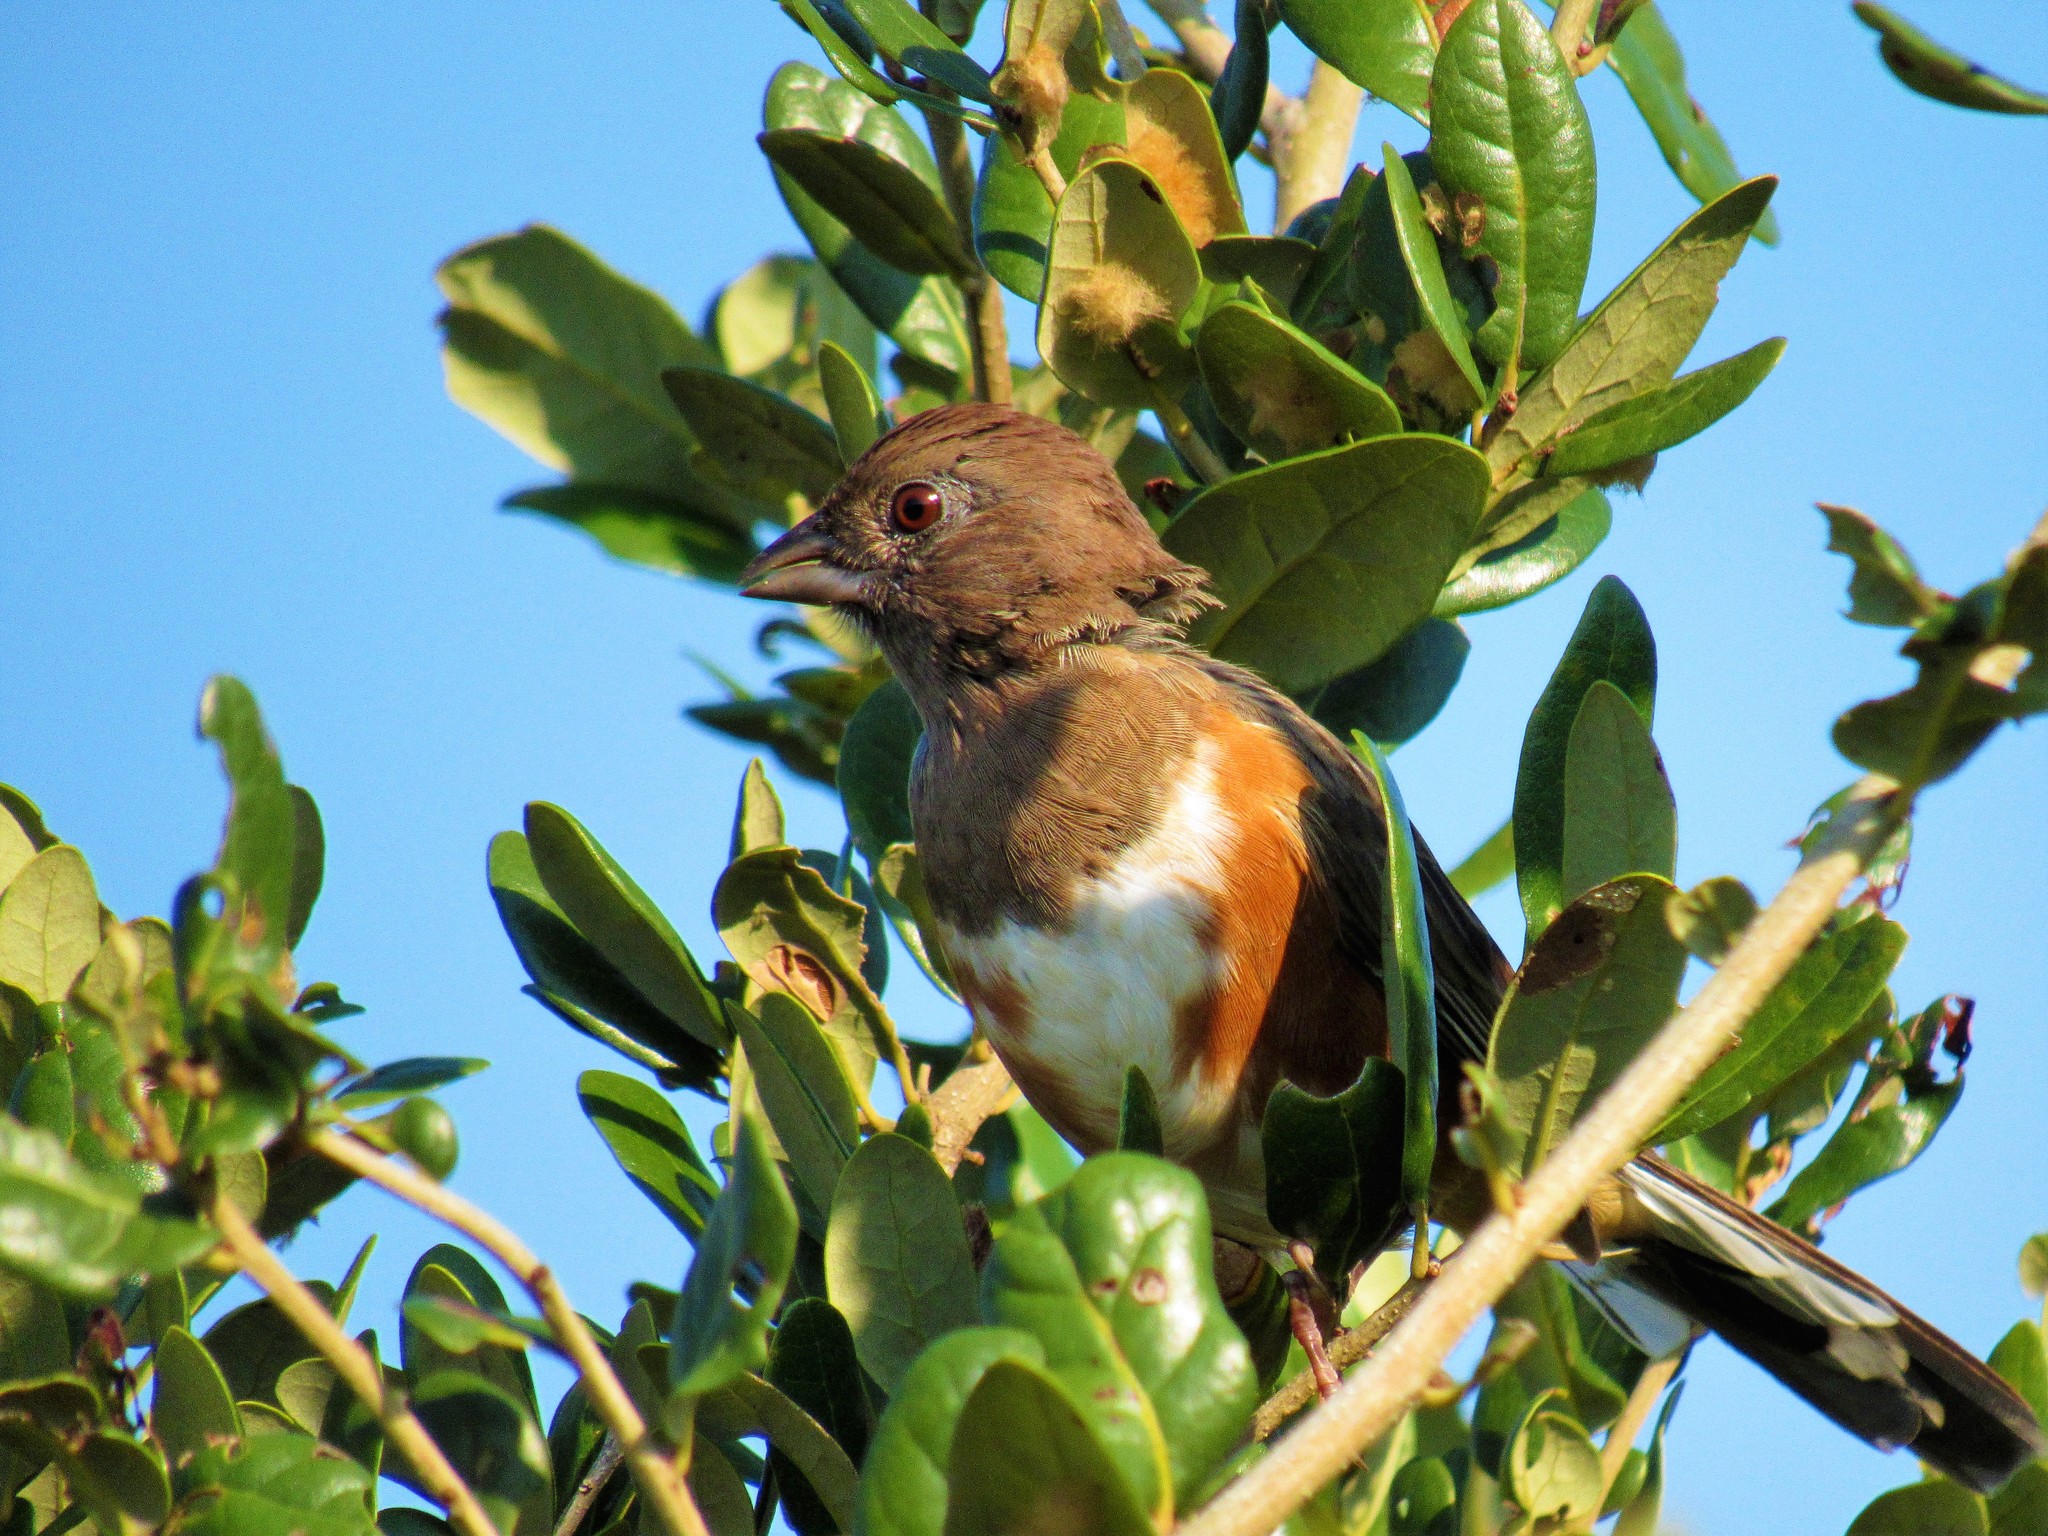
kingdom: Animalia
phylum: Chordata
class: Aves
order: Passeriformes
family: Passerellidae
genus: Pipilo
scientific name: Pipilo erythrophthalmus
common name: Eastern towhee
